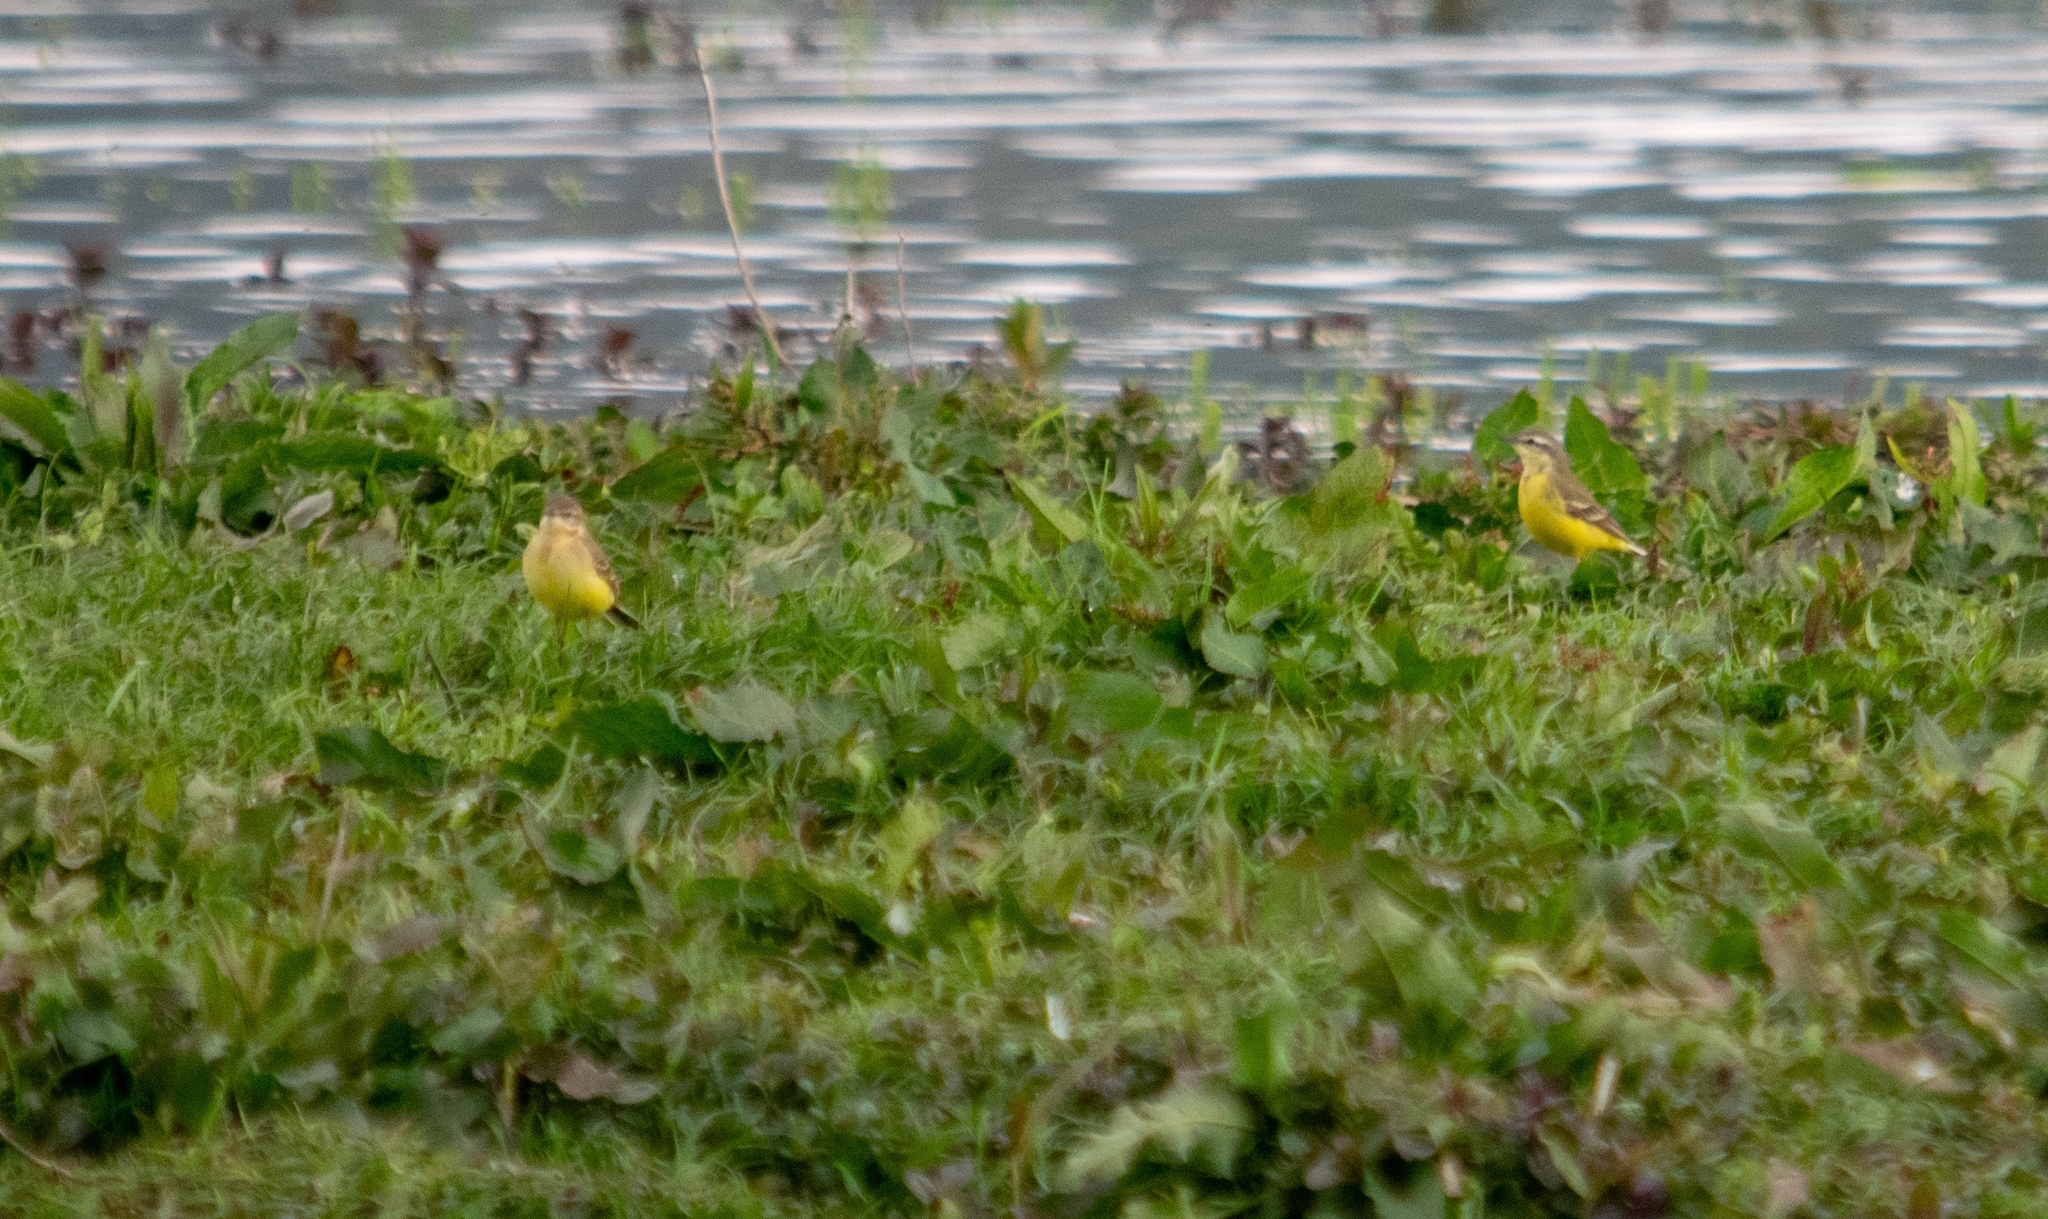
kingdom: Animalia
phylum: Chordata
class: Aves
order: Passeriformes
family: Motacillidae
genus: Motacilla
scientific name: Motacilla flava
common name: Western yellow wagtail
